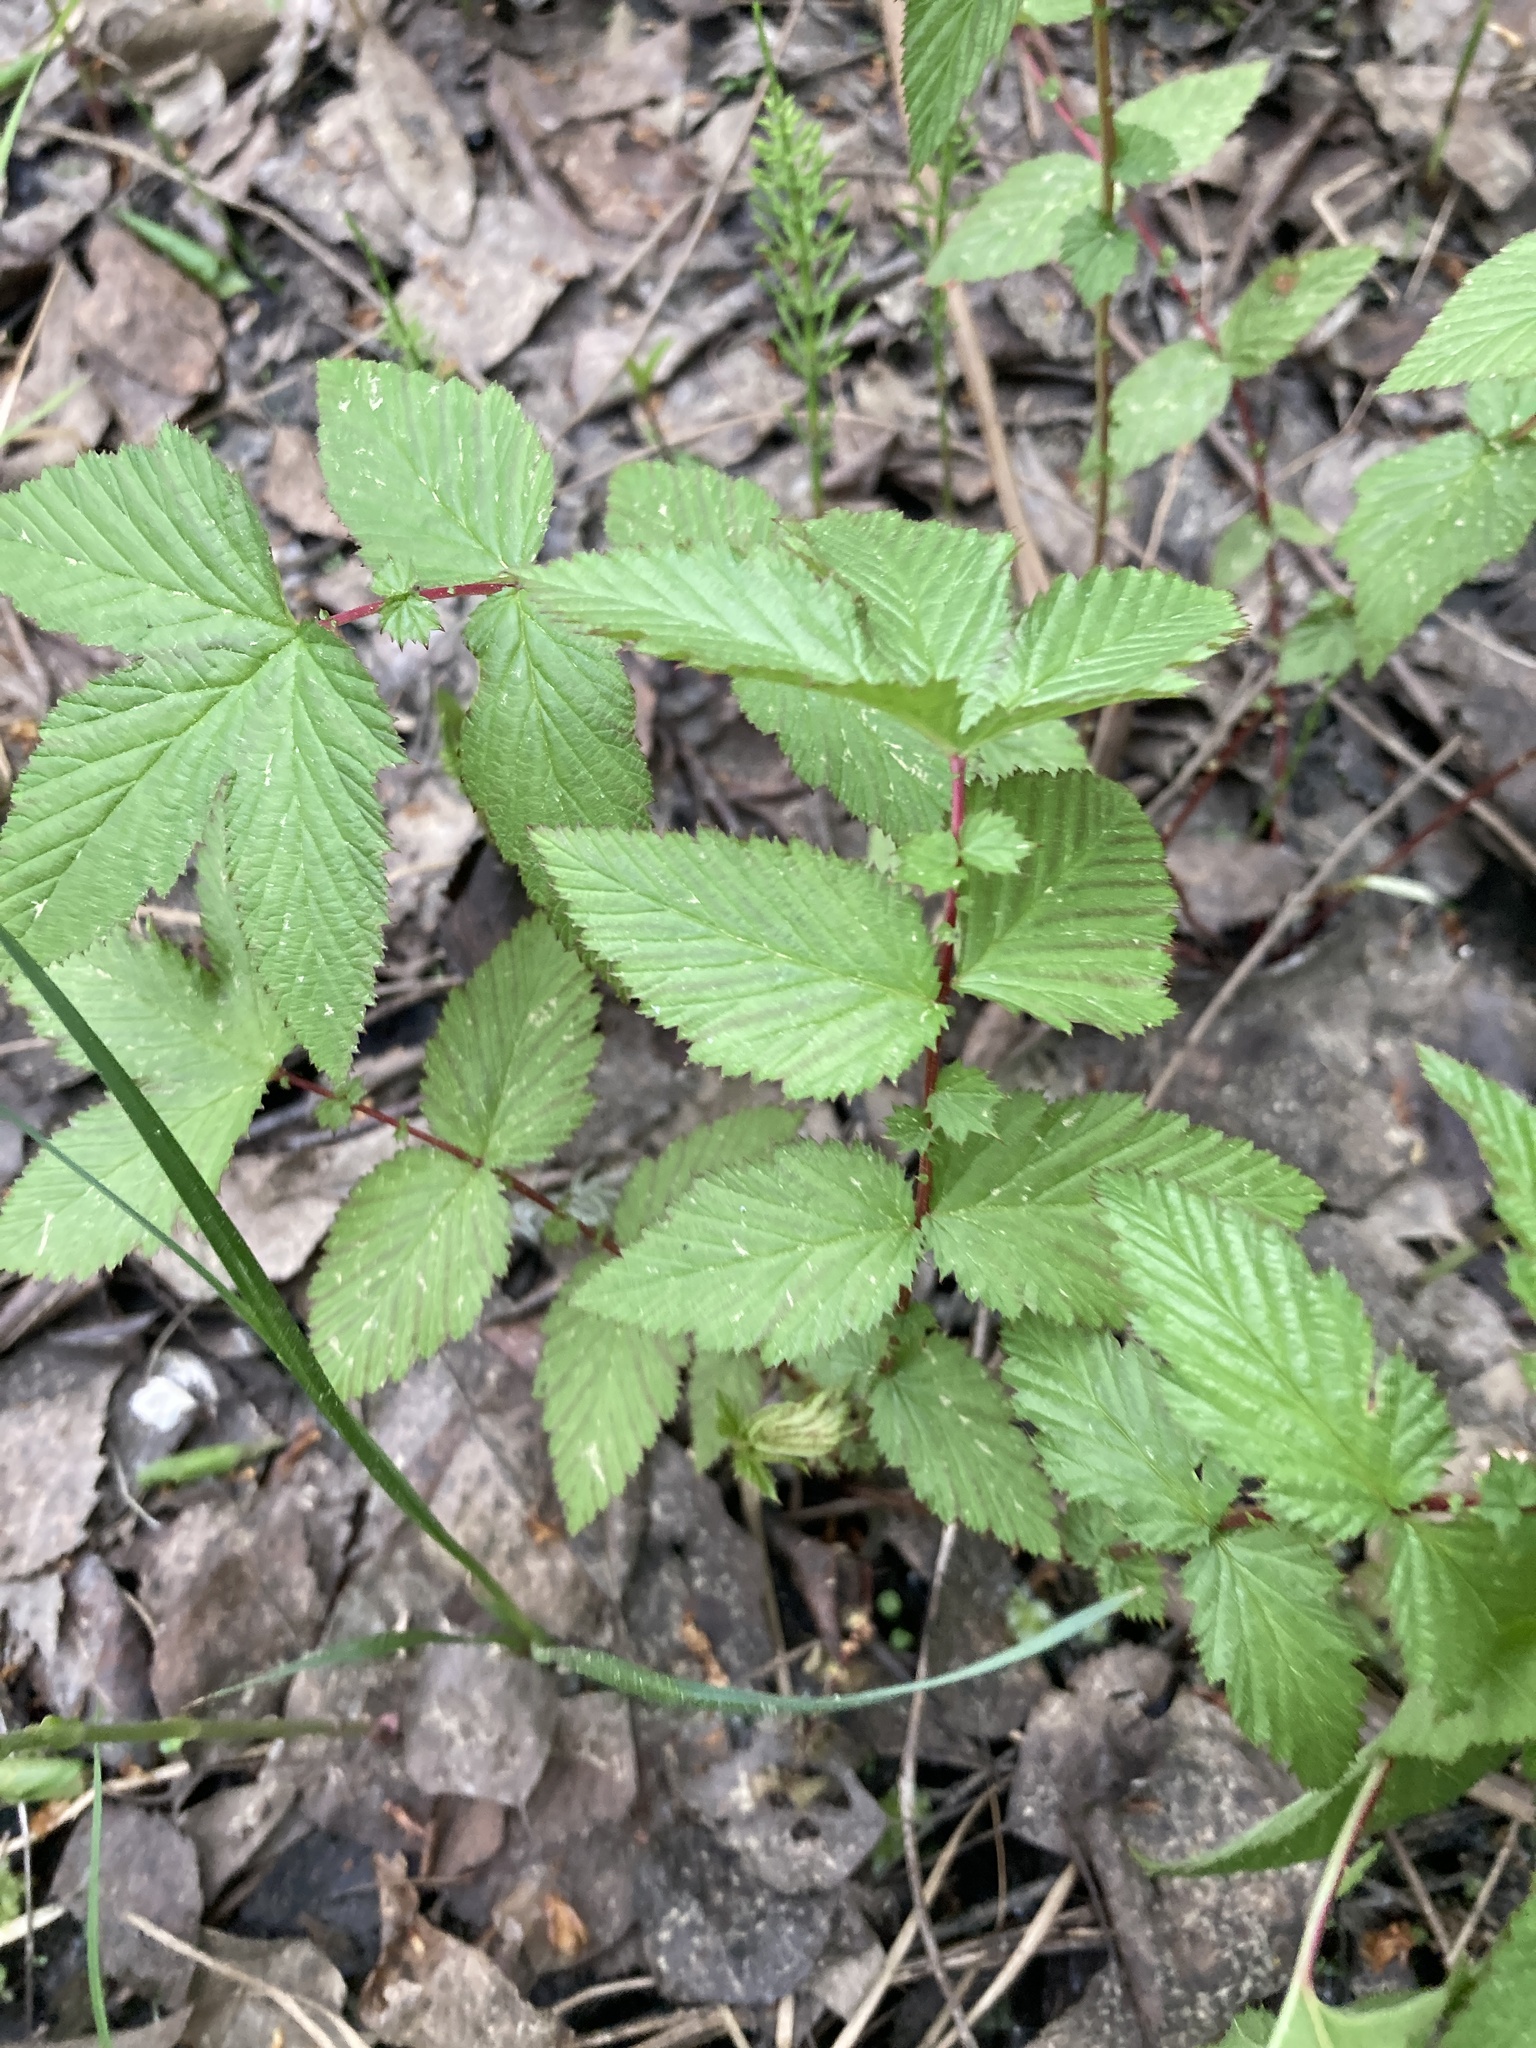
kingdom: Plantae
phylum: Tracheophyta
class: Magnoliopsida
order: Rosales
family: Rosaceae
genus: Filipendula
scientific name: Filipendula ulmaria
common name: Meadowsweet
